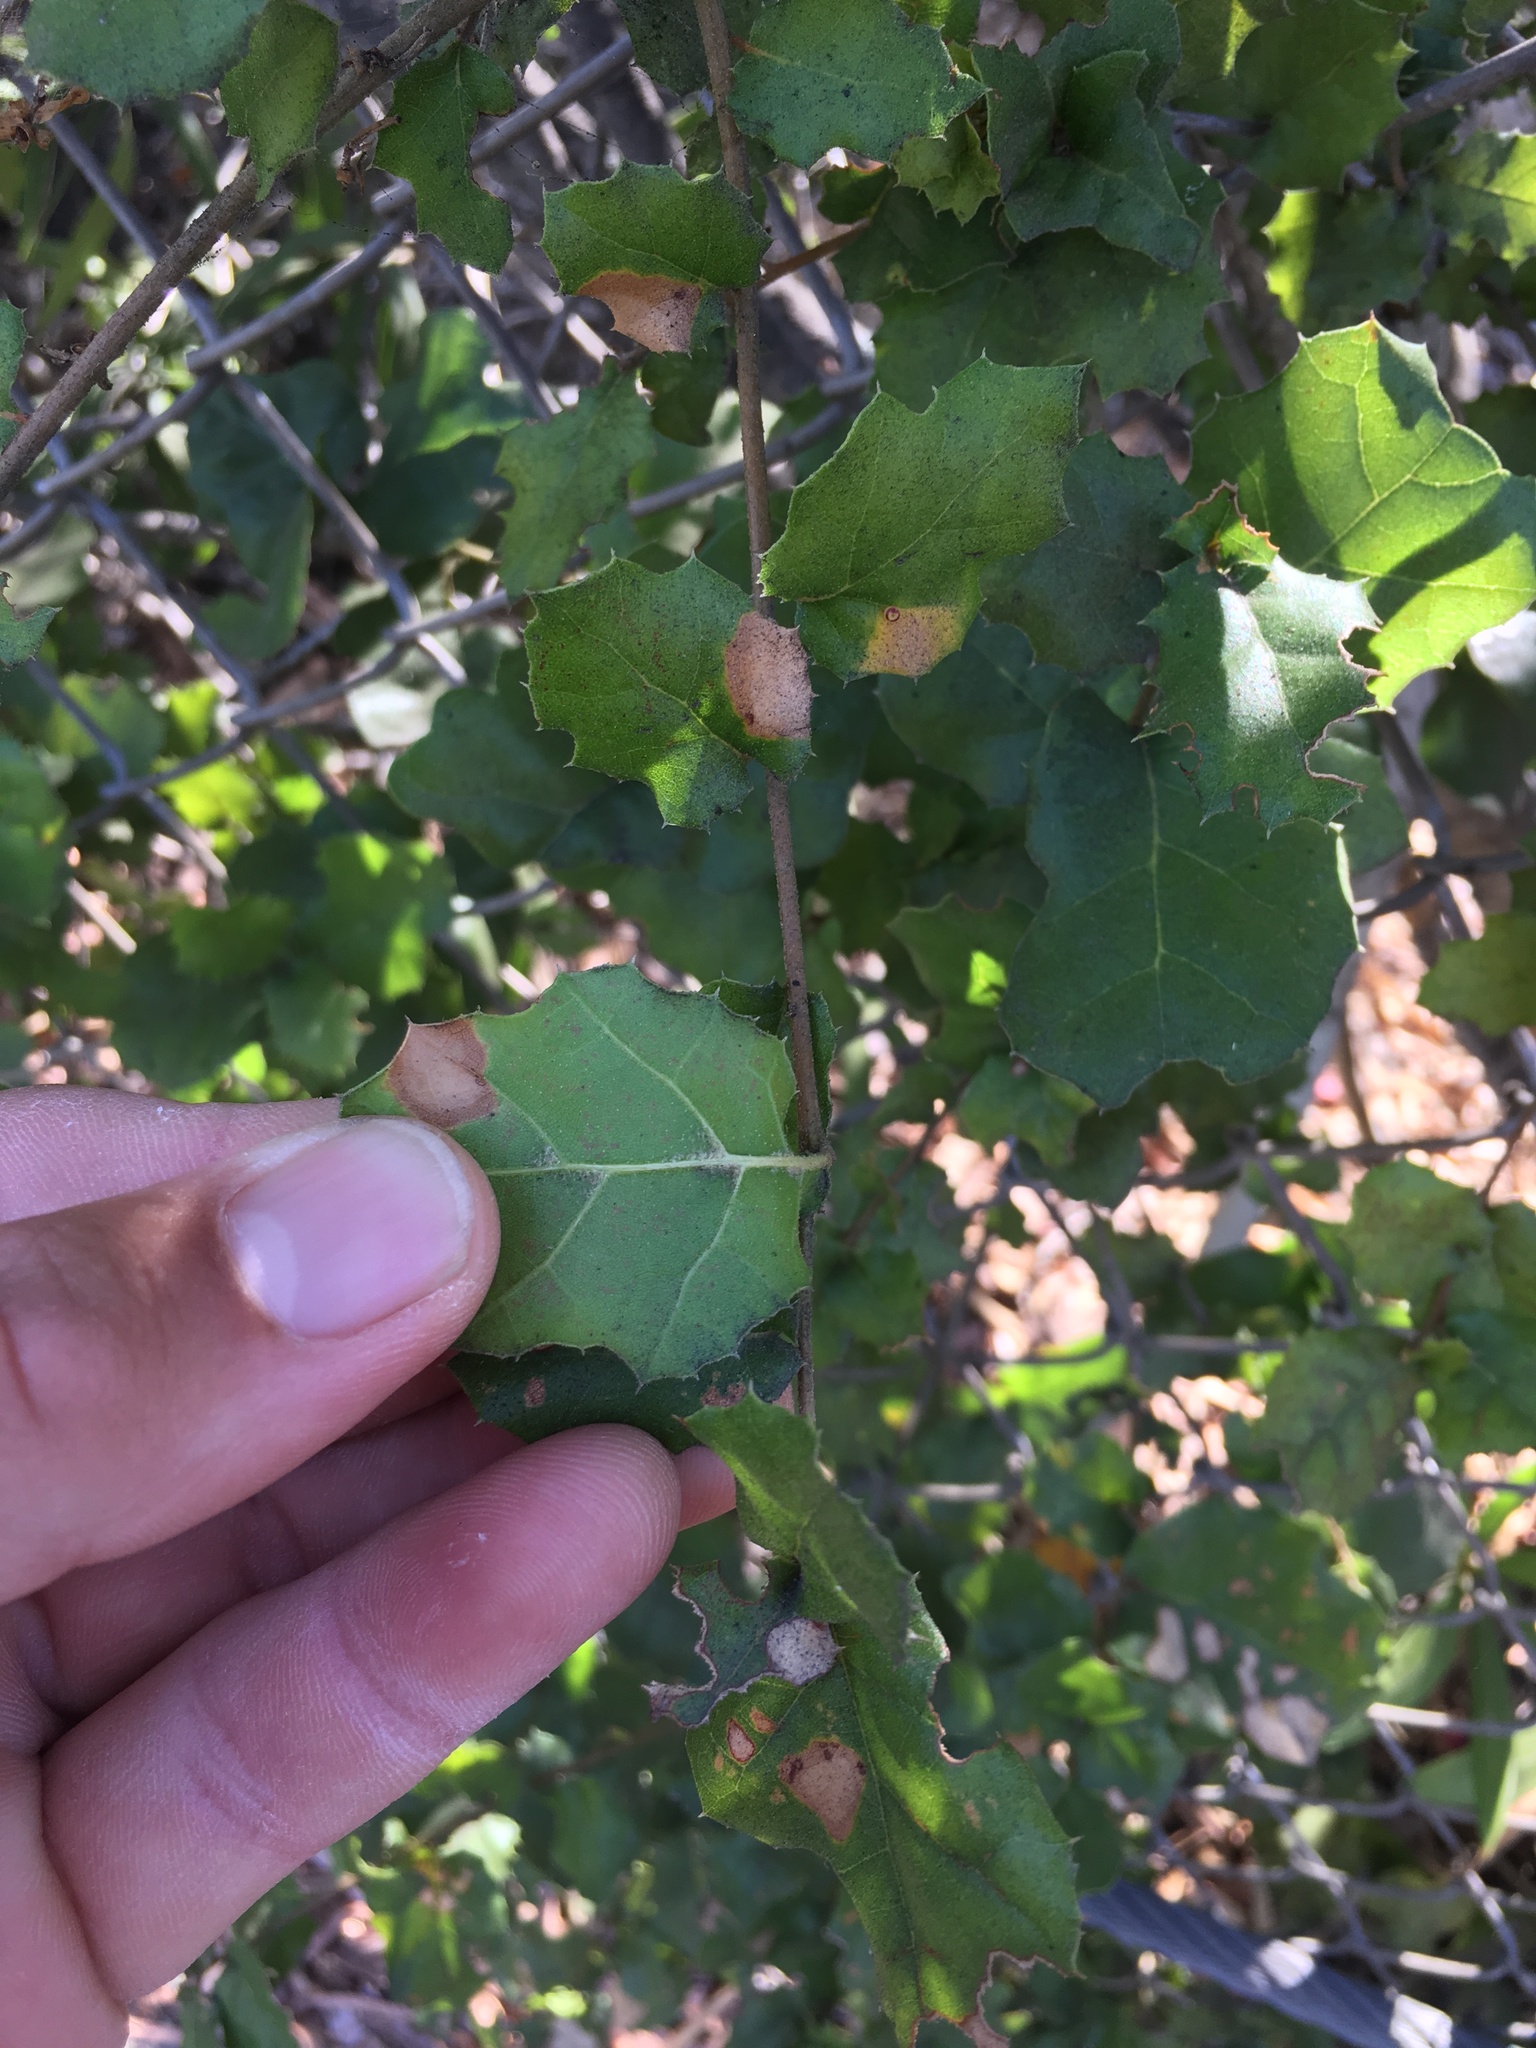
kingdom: Plantae
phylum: Tracheophyta
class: Magnoliopsida
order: Fagales
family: Fagaceae
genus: Quercus
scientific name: Quercus agrifolia
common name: California live oak
